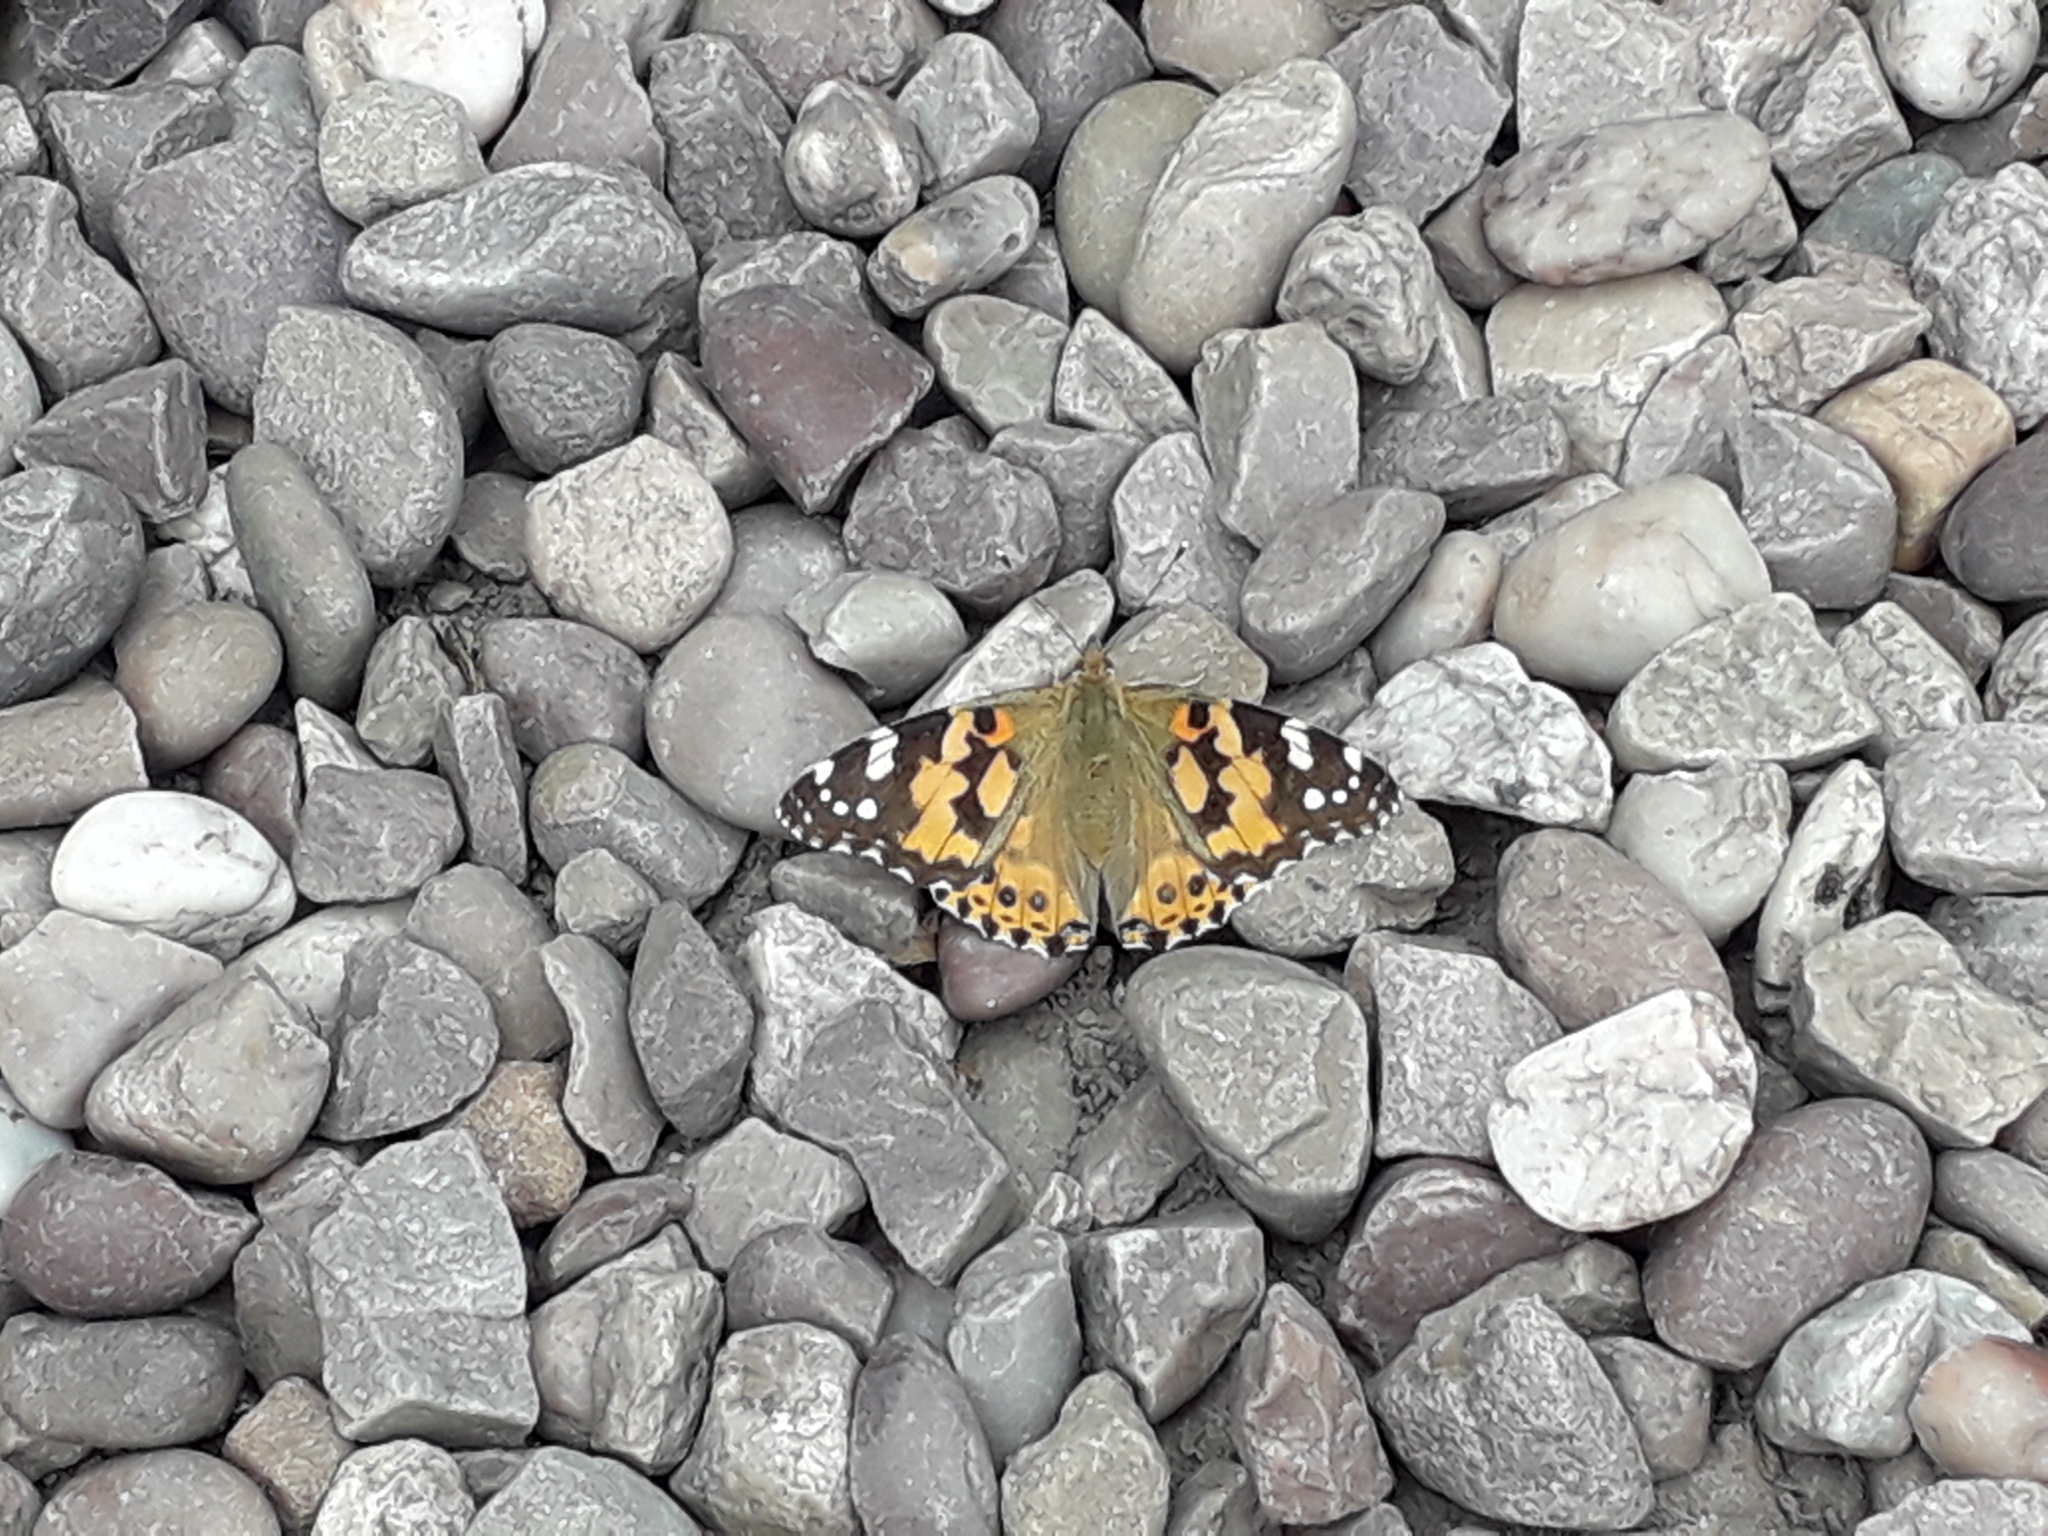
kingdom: Animalia
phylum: Arthropoda
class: Insecta
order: Lepidoptera
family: Nymphalidae
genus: Vanessa
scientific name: Vanessa cardui
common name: Painted lady
